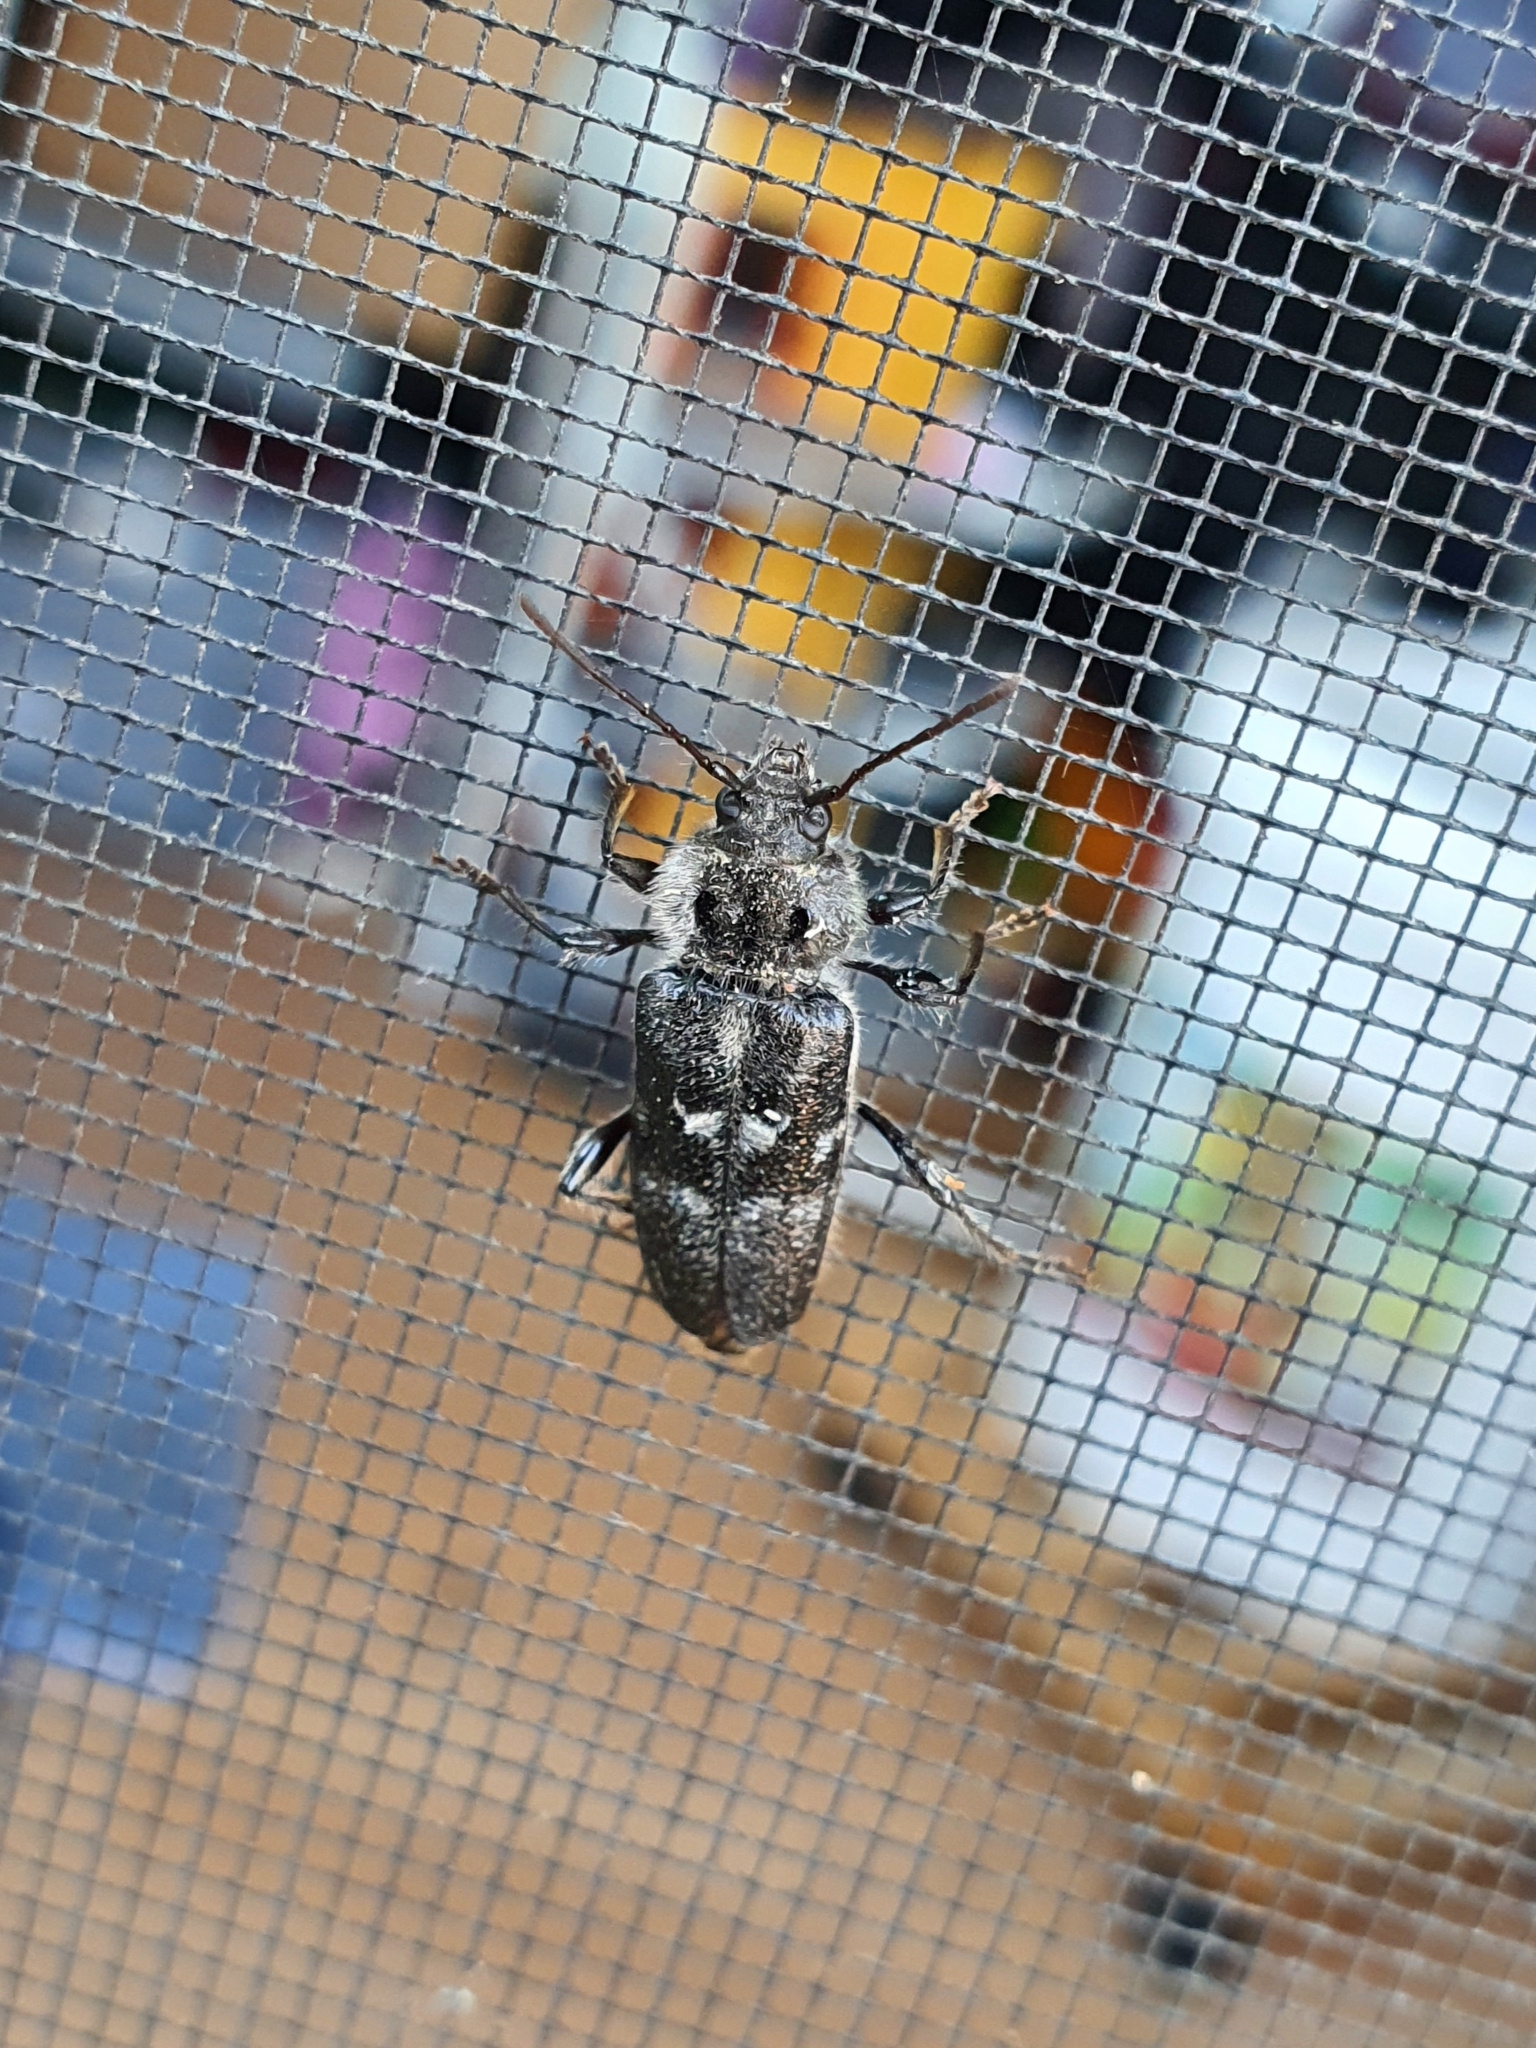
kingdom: Animalia
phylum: Arthropoda
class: Insecta
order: Coleoptera
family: Cerambycidae
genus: Hylotrupes
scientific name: Hylotrupes bajulus
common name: Old house borer
